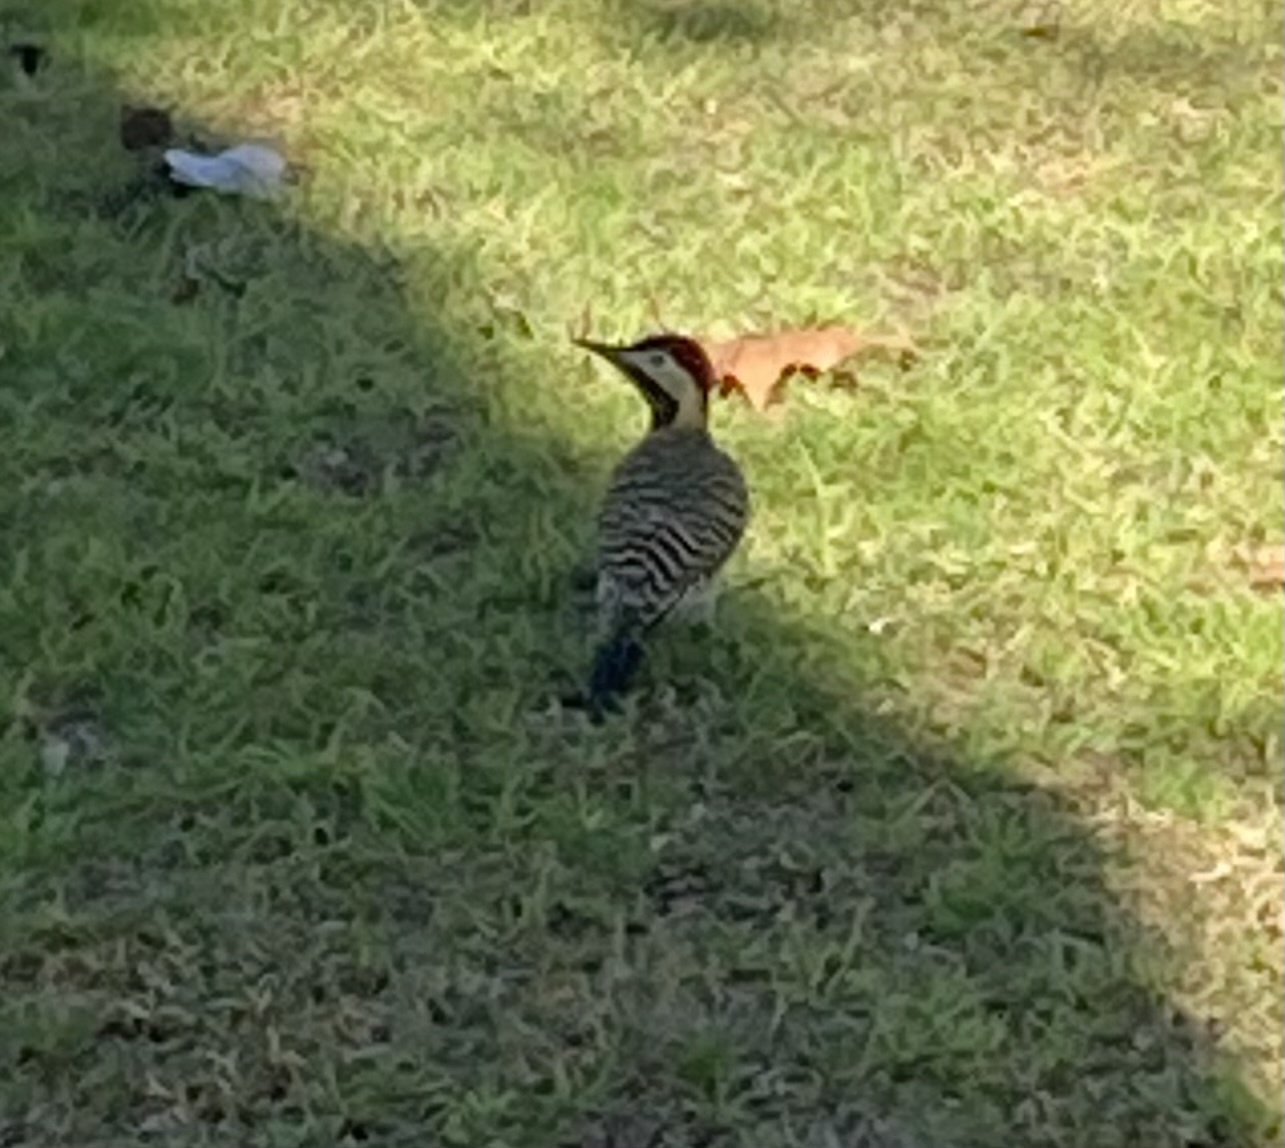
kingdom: Animalia
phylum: Chordata
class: Aves
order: Piciformes
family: Picidae
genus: Colaptes
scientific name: Colaptes melanochloros
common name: Green-barred woodpecker
